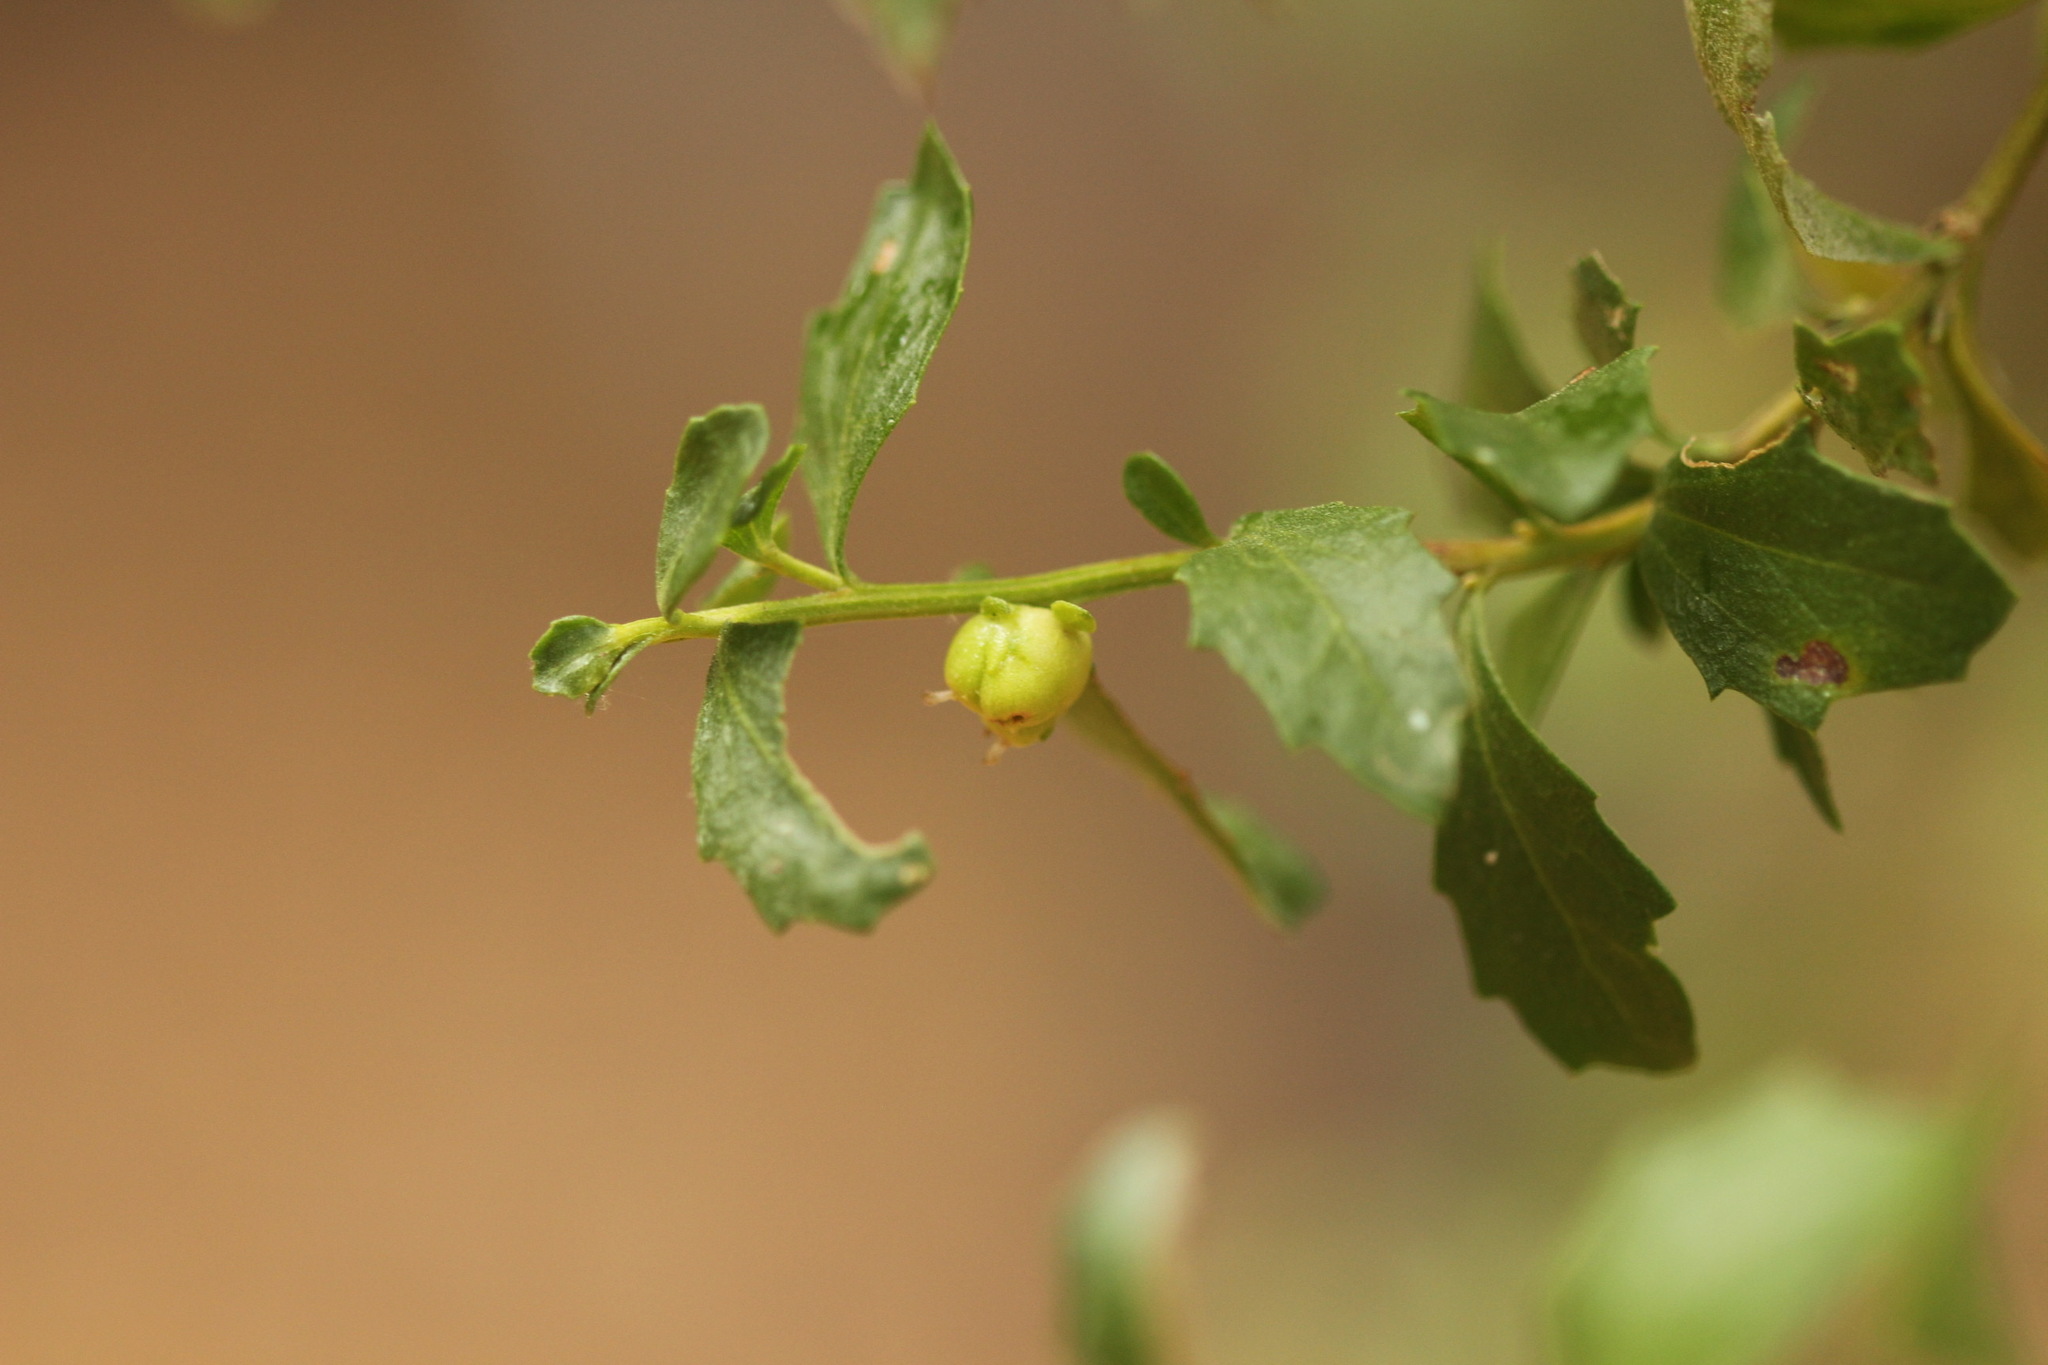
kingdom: Animalia
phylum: Arthropoda
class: Insecta
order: Diptera
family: Cecidomyiidae
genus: Rhopalomyia
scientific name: Rhopalomyia californica
